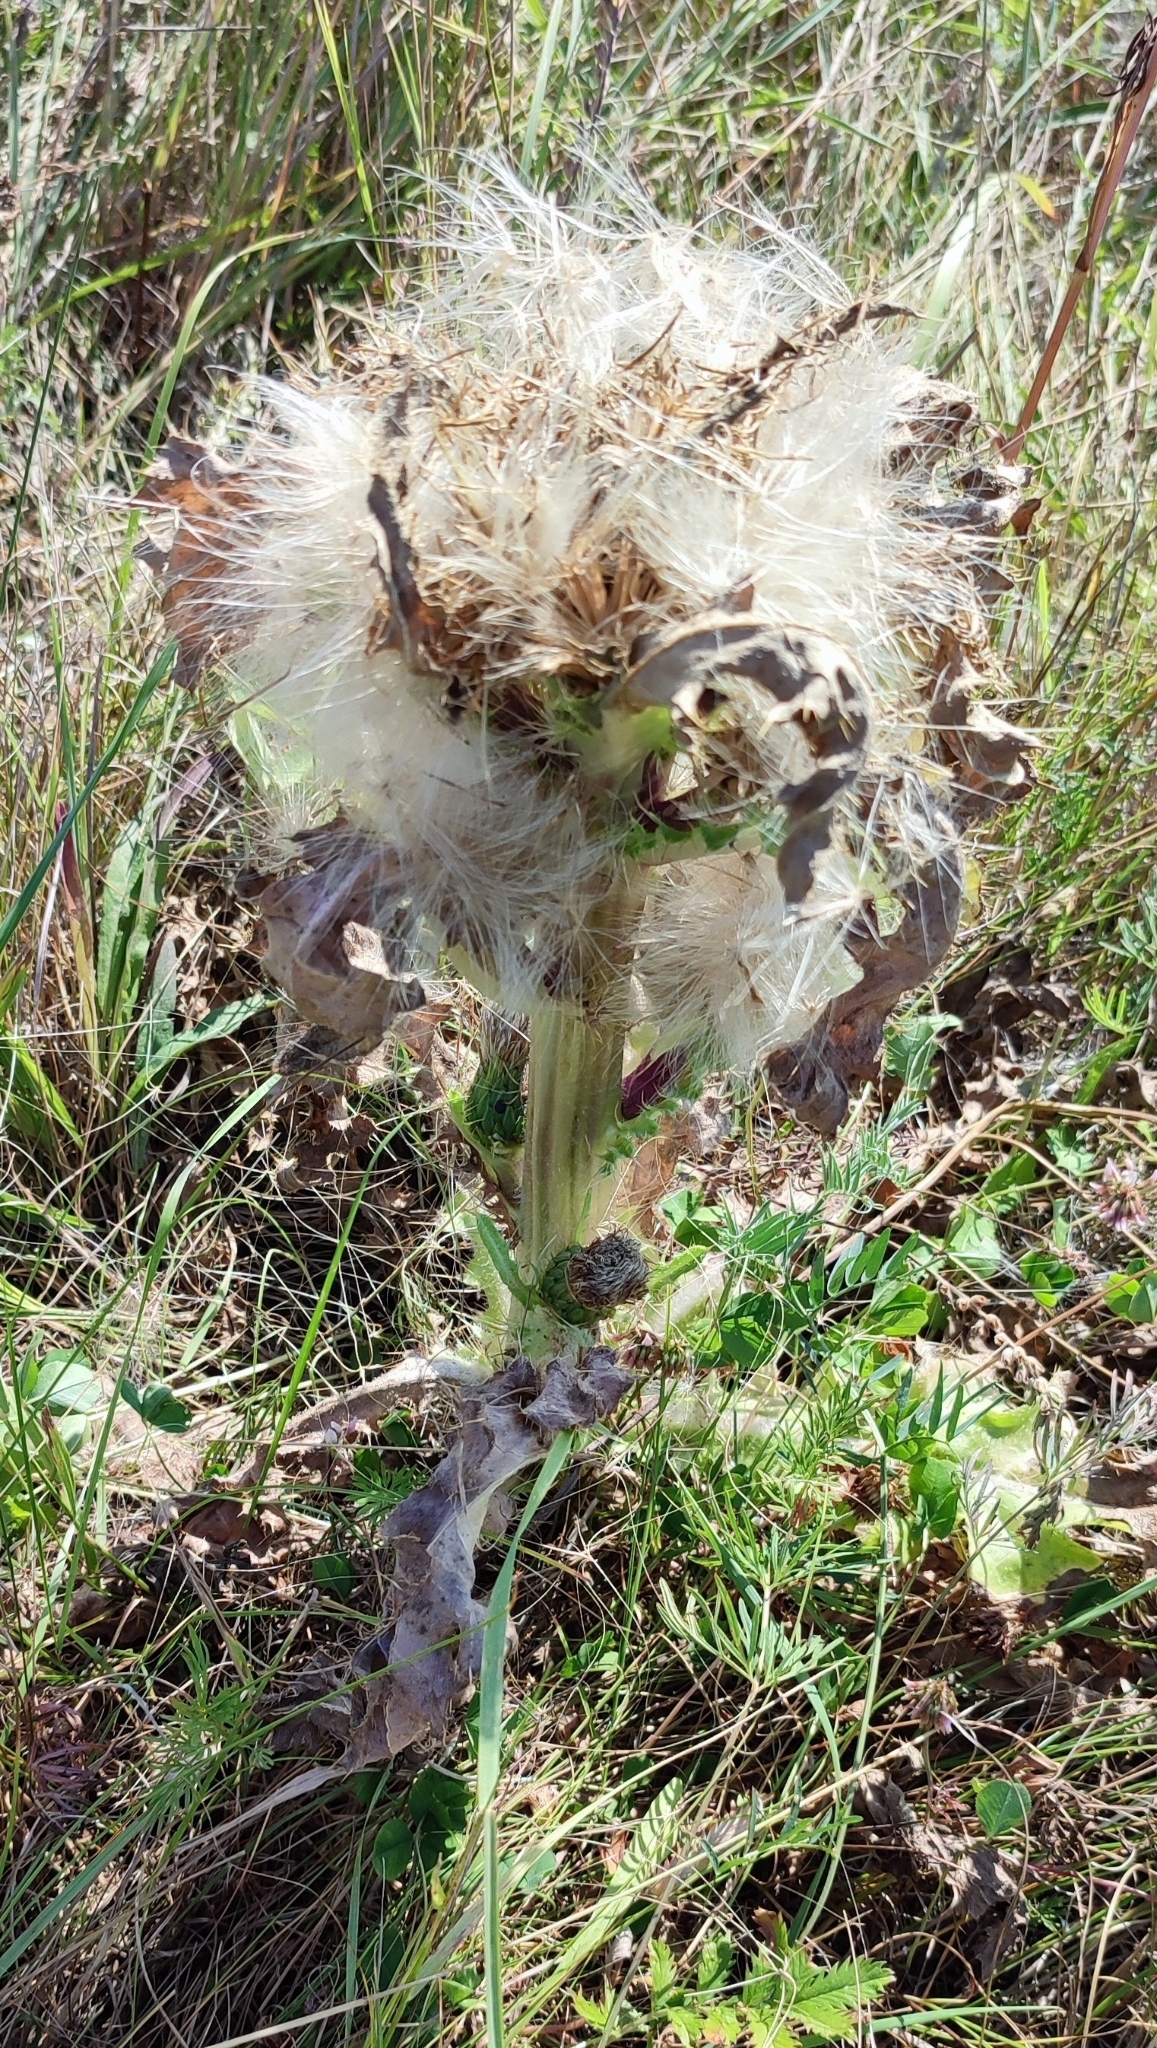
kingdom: Plantae
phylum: Tracheophyta
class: Magnoliopsida
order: Asterales
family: Asteraceae
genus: Cirsium
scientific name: Cirsium esculentum
